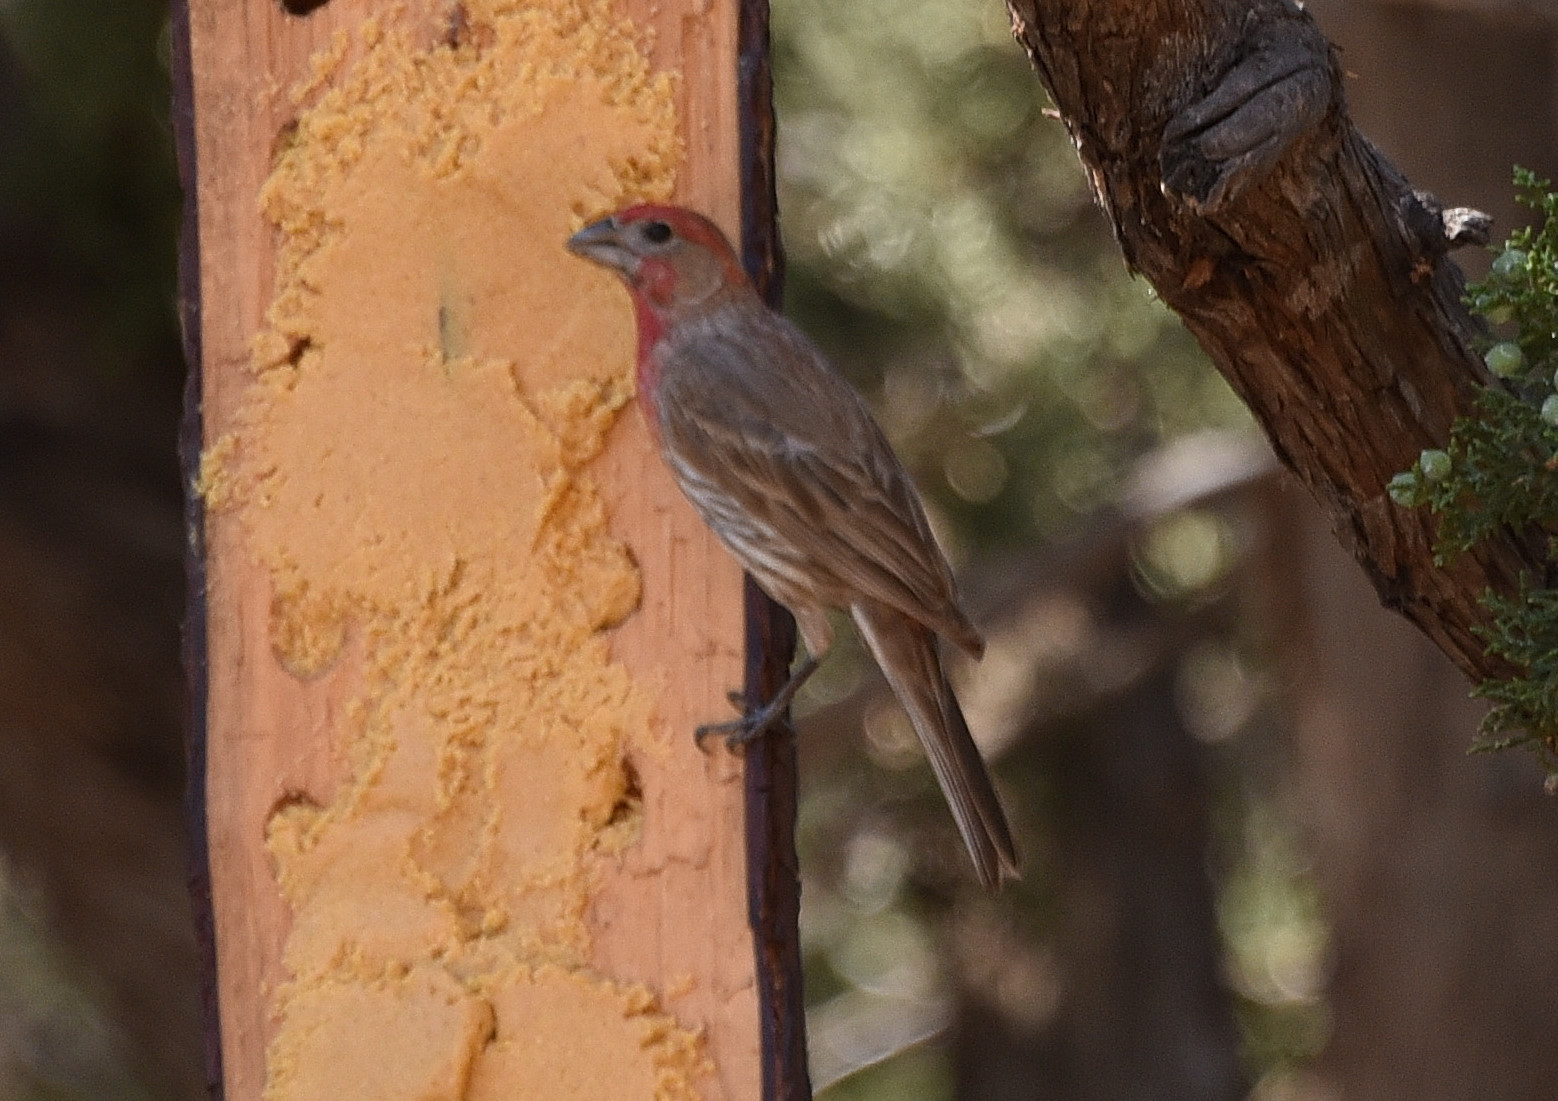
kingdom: Animalia
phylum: Chordata
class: Aves
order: Passeriformes
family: Fringillidae
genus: Haemorhous
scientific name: Haemorhous mexicanus
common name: House finch
